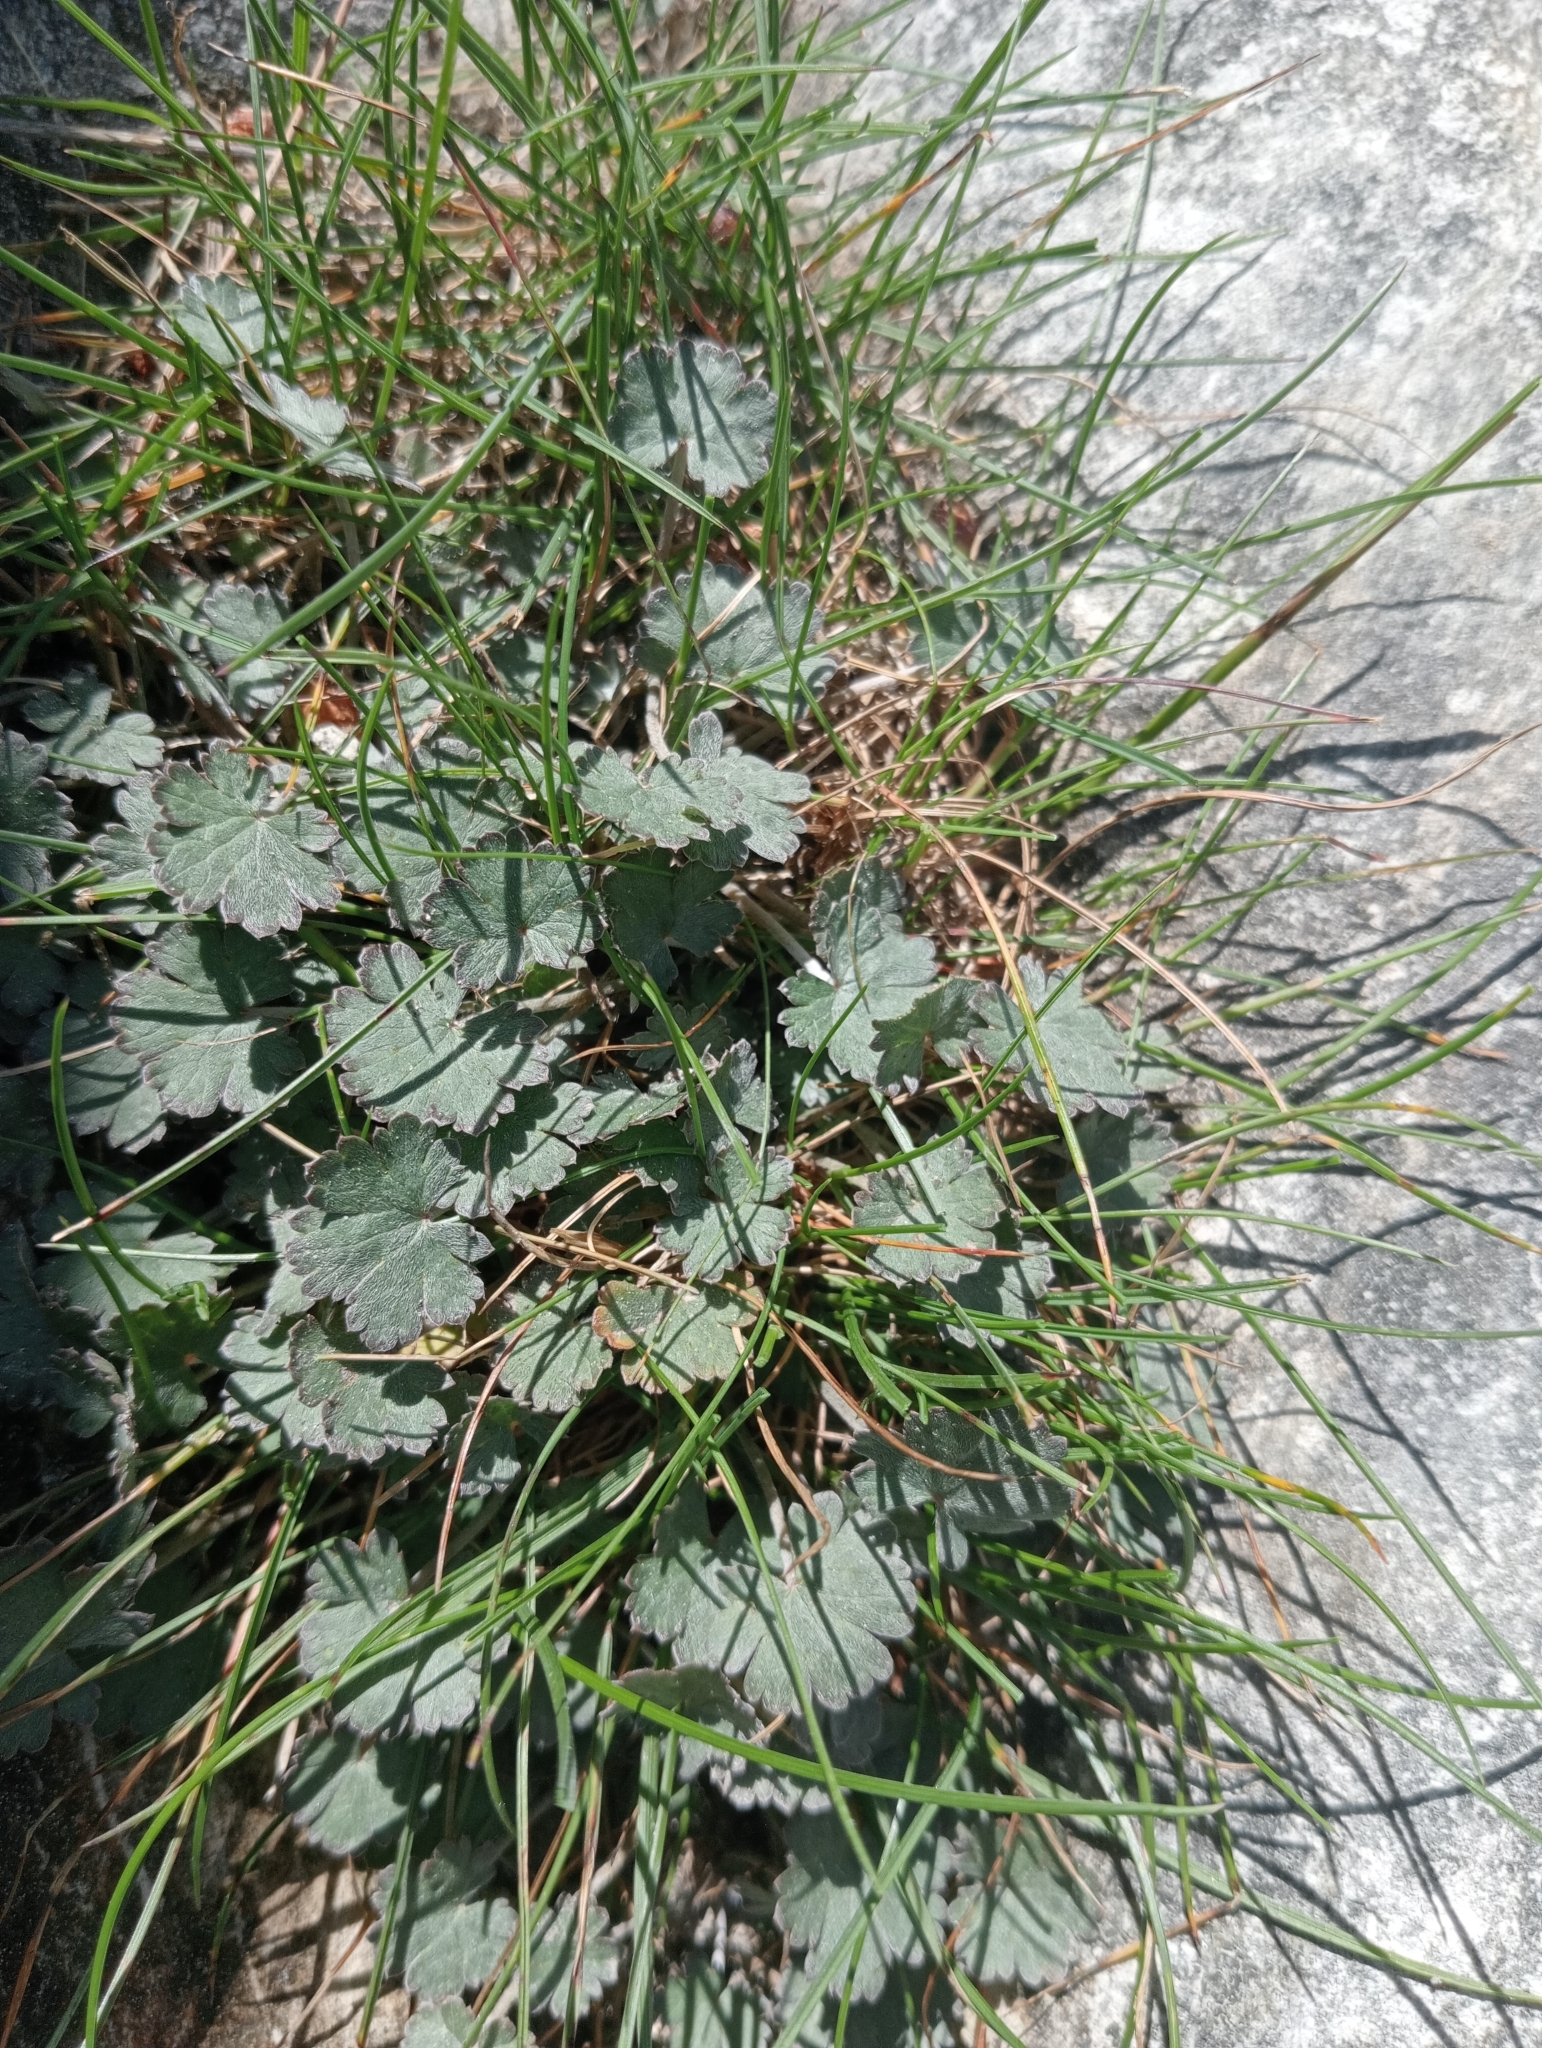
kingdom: Plantae
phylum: Tracheophyta
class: Magnoliopsida
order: Geraniales
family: Geraniaceae
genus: Geranium
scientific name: Geranium socolateum
